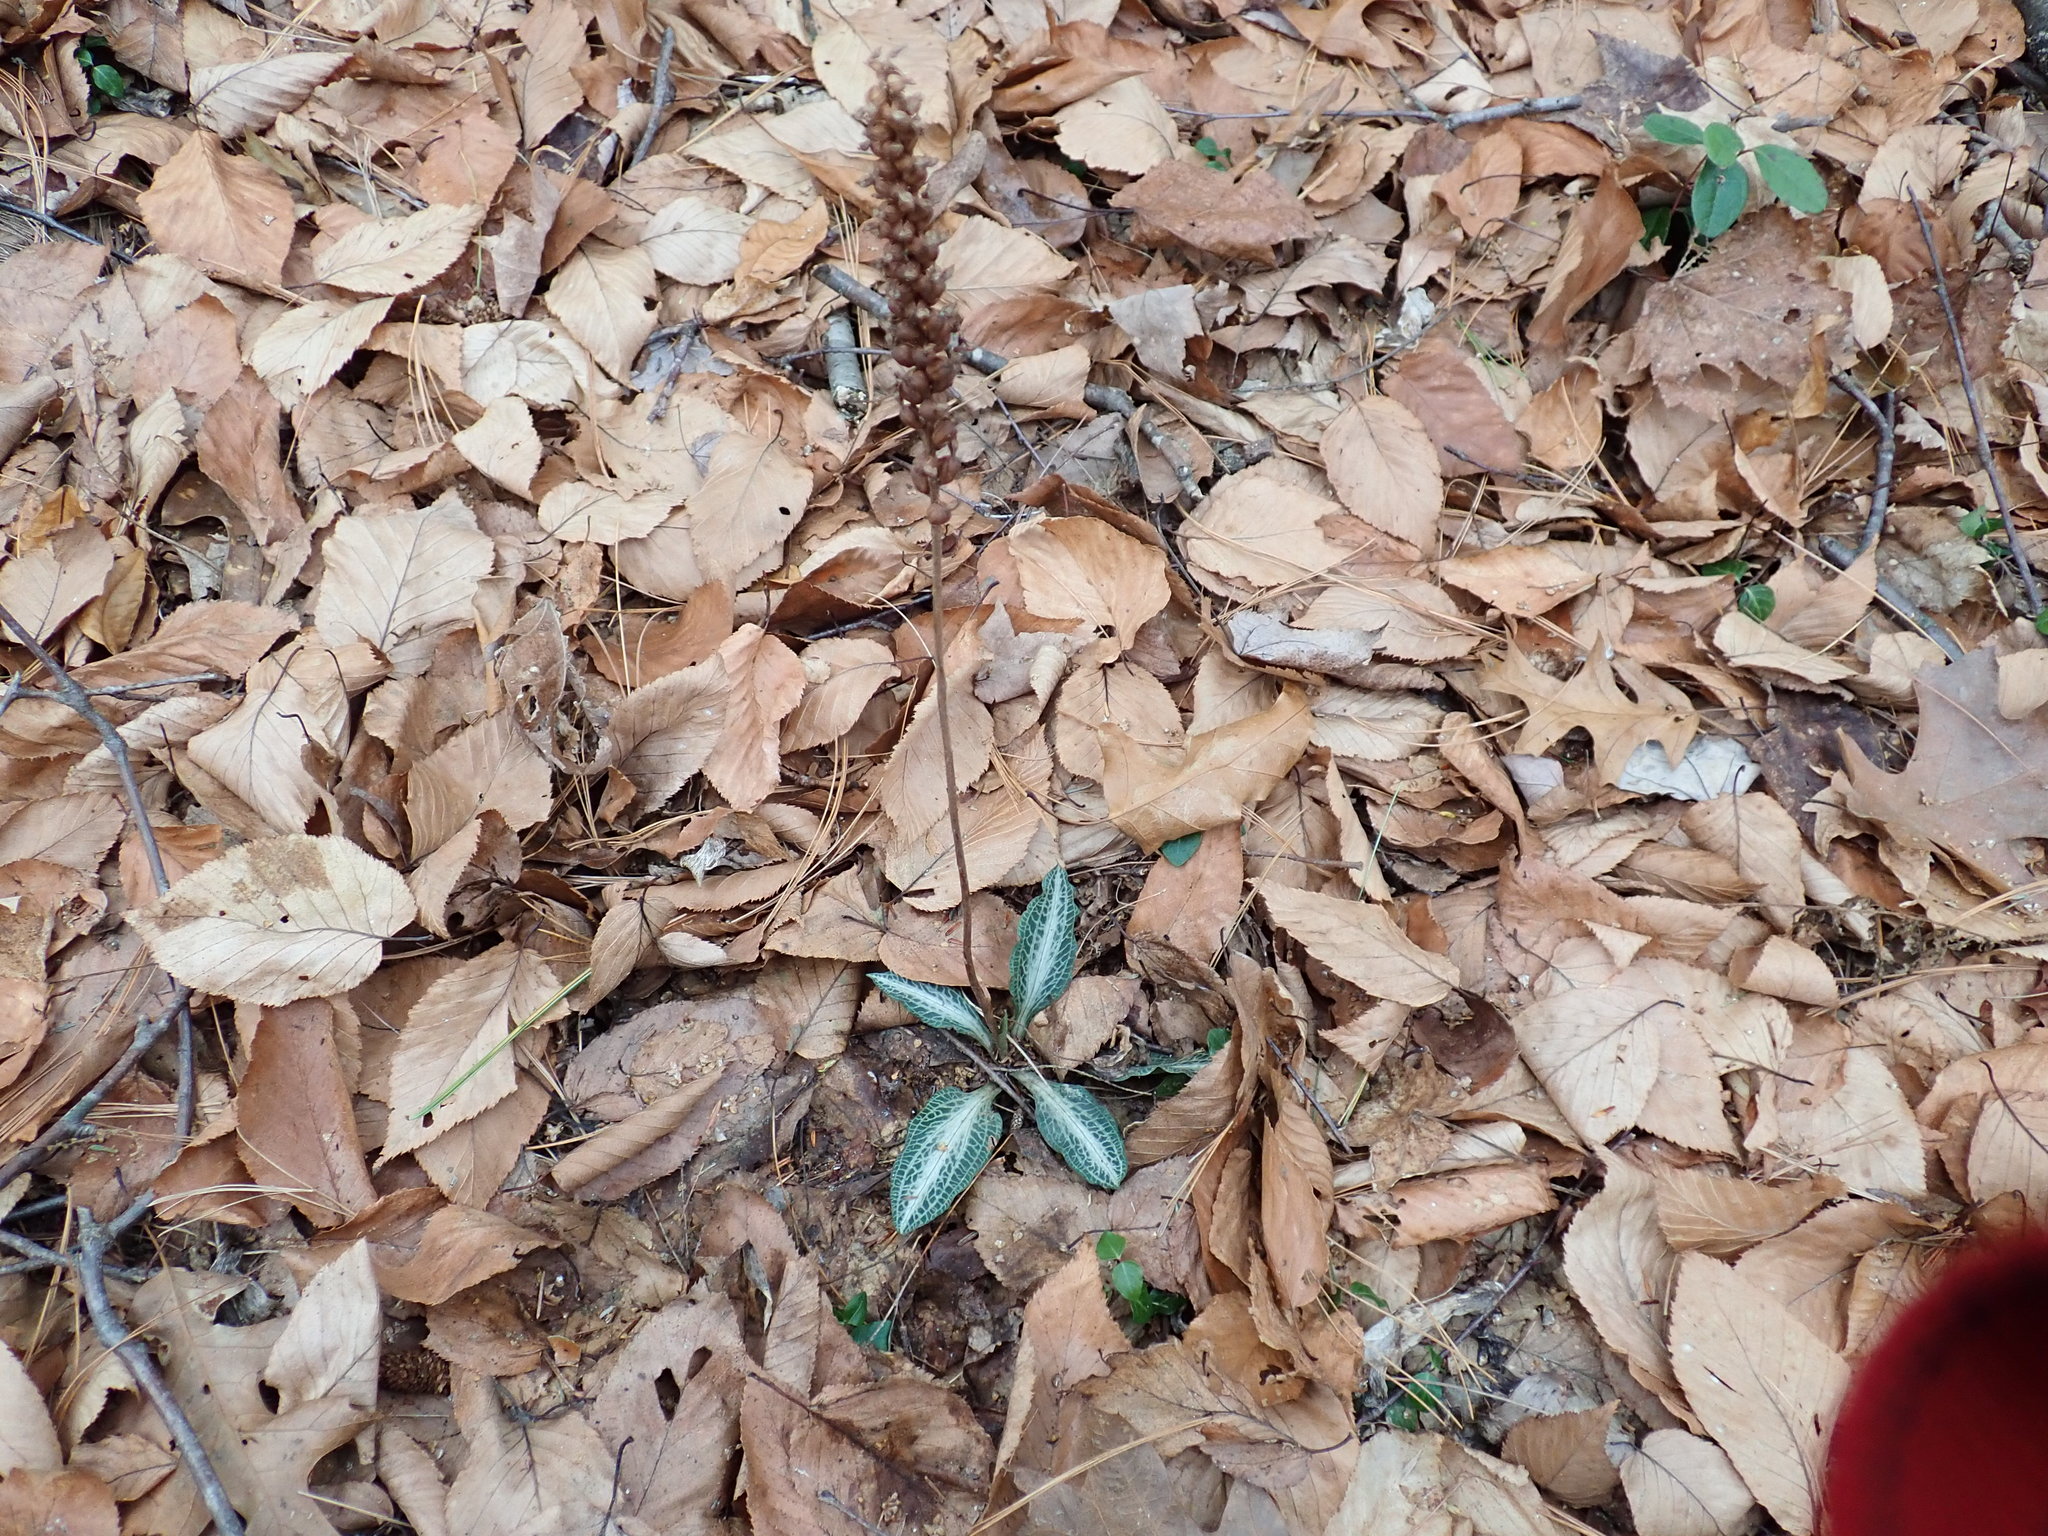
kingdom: Plantae
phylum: Tracheophyta
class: Liliopsida
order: Asparagales
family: Orchidaceae
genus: Goodyera
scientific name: Goodyera pubescens
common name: Downy rattlesnake-plantain
